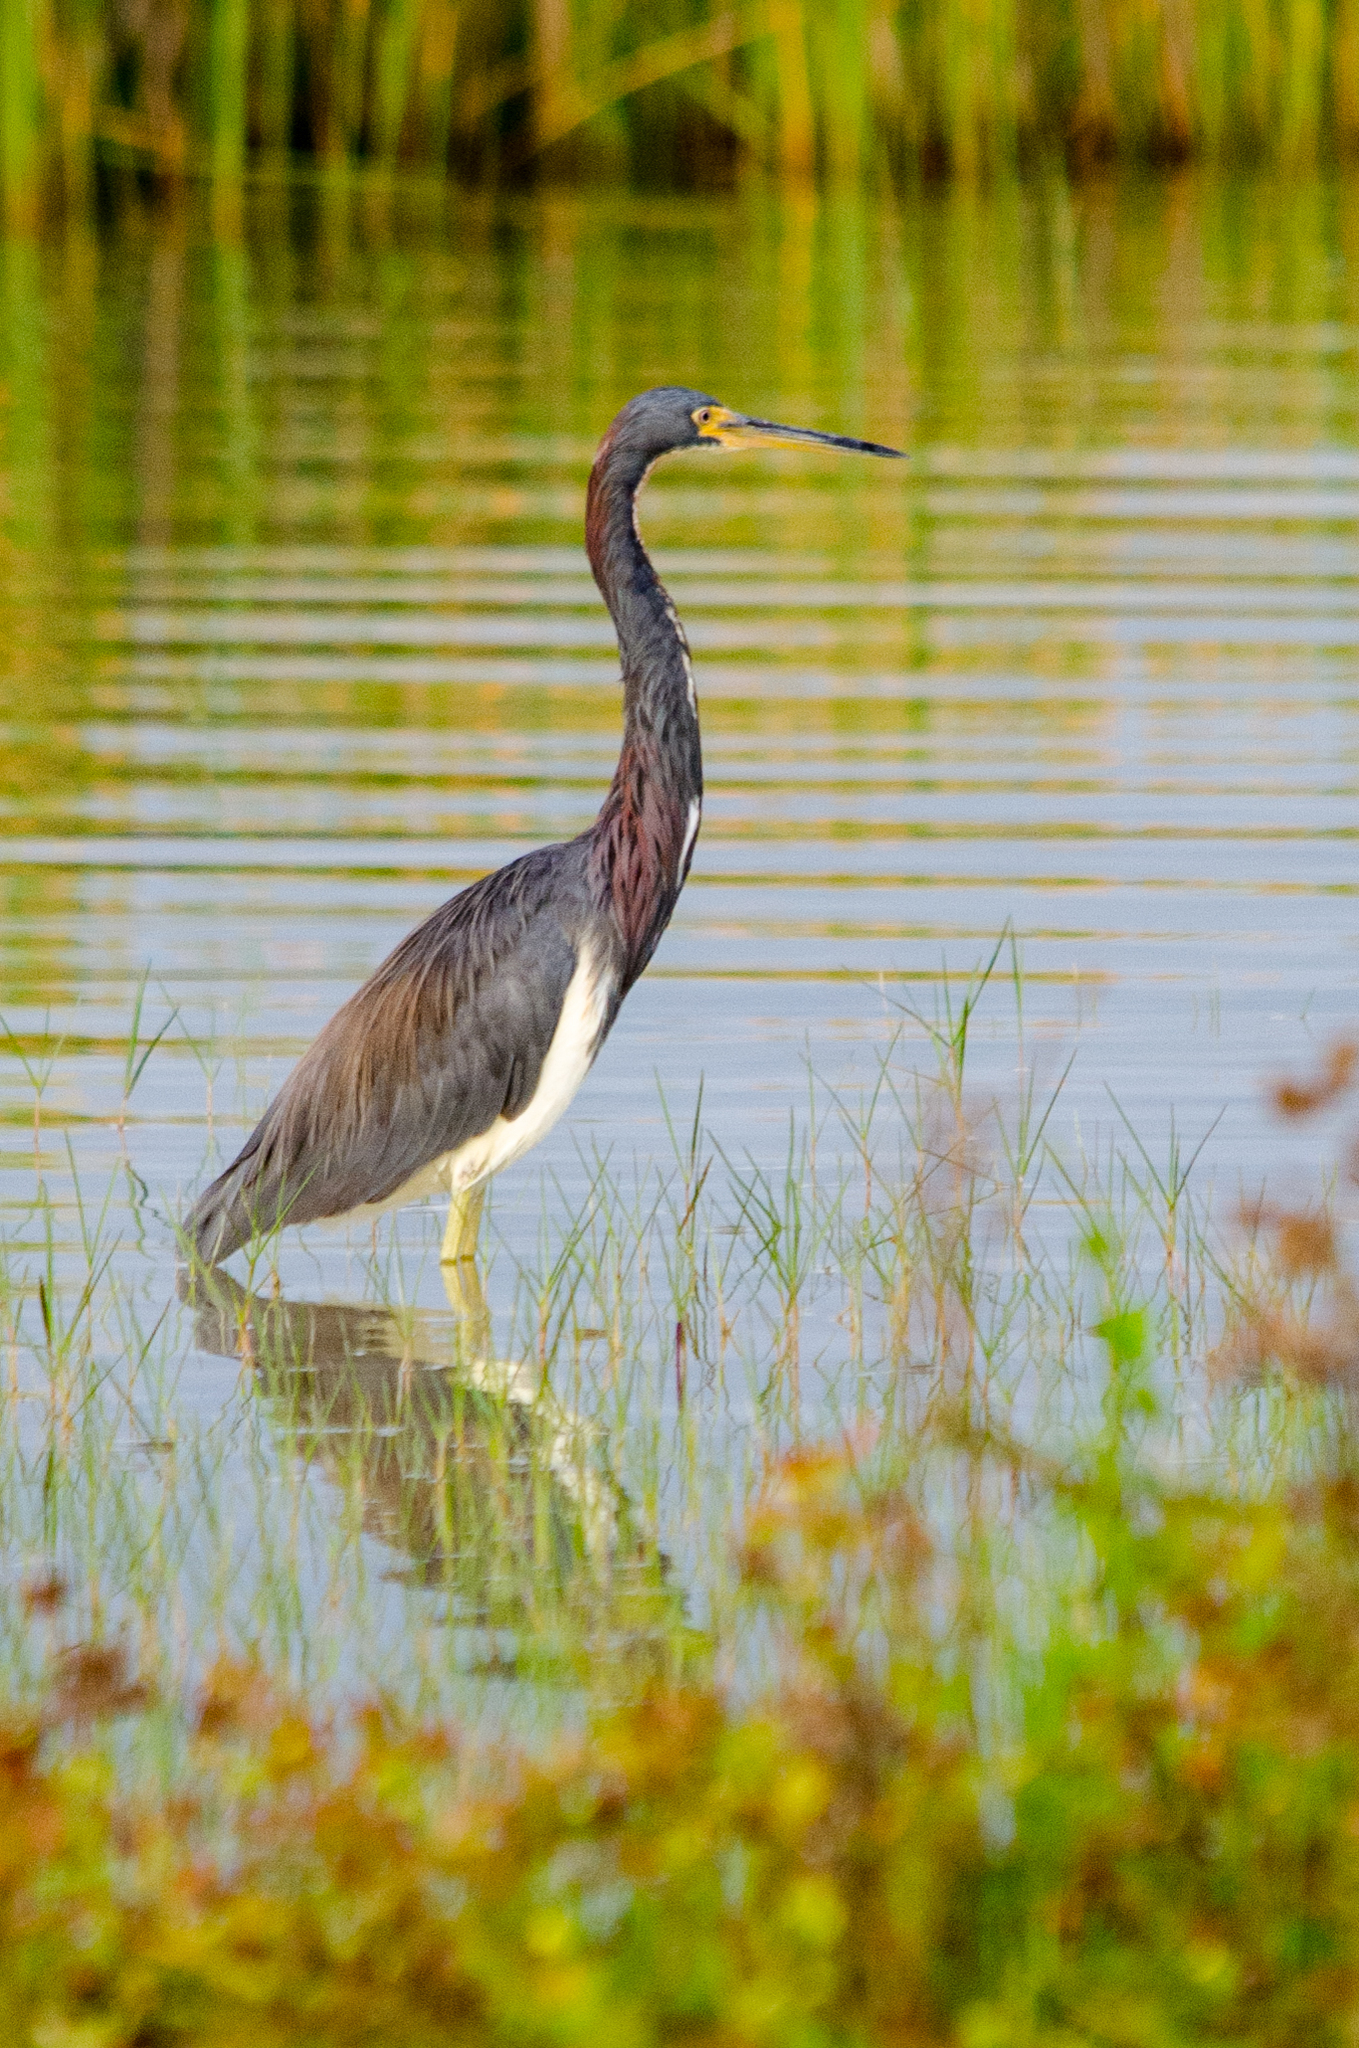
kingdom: Animalia
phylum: Chordata
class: Aves
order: Pelecaniformes
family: Ardeidae
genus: Egretta
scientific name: Egretta tricolor
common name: Tricolored heron
